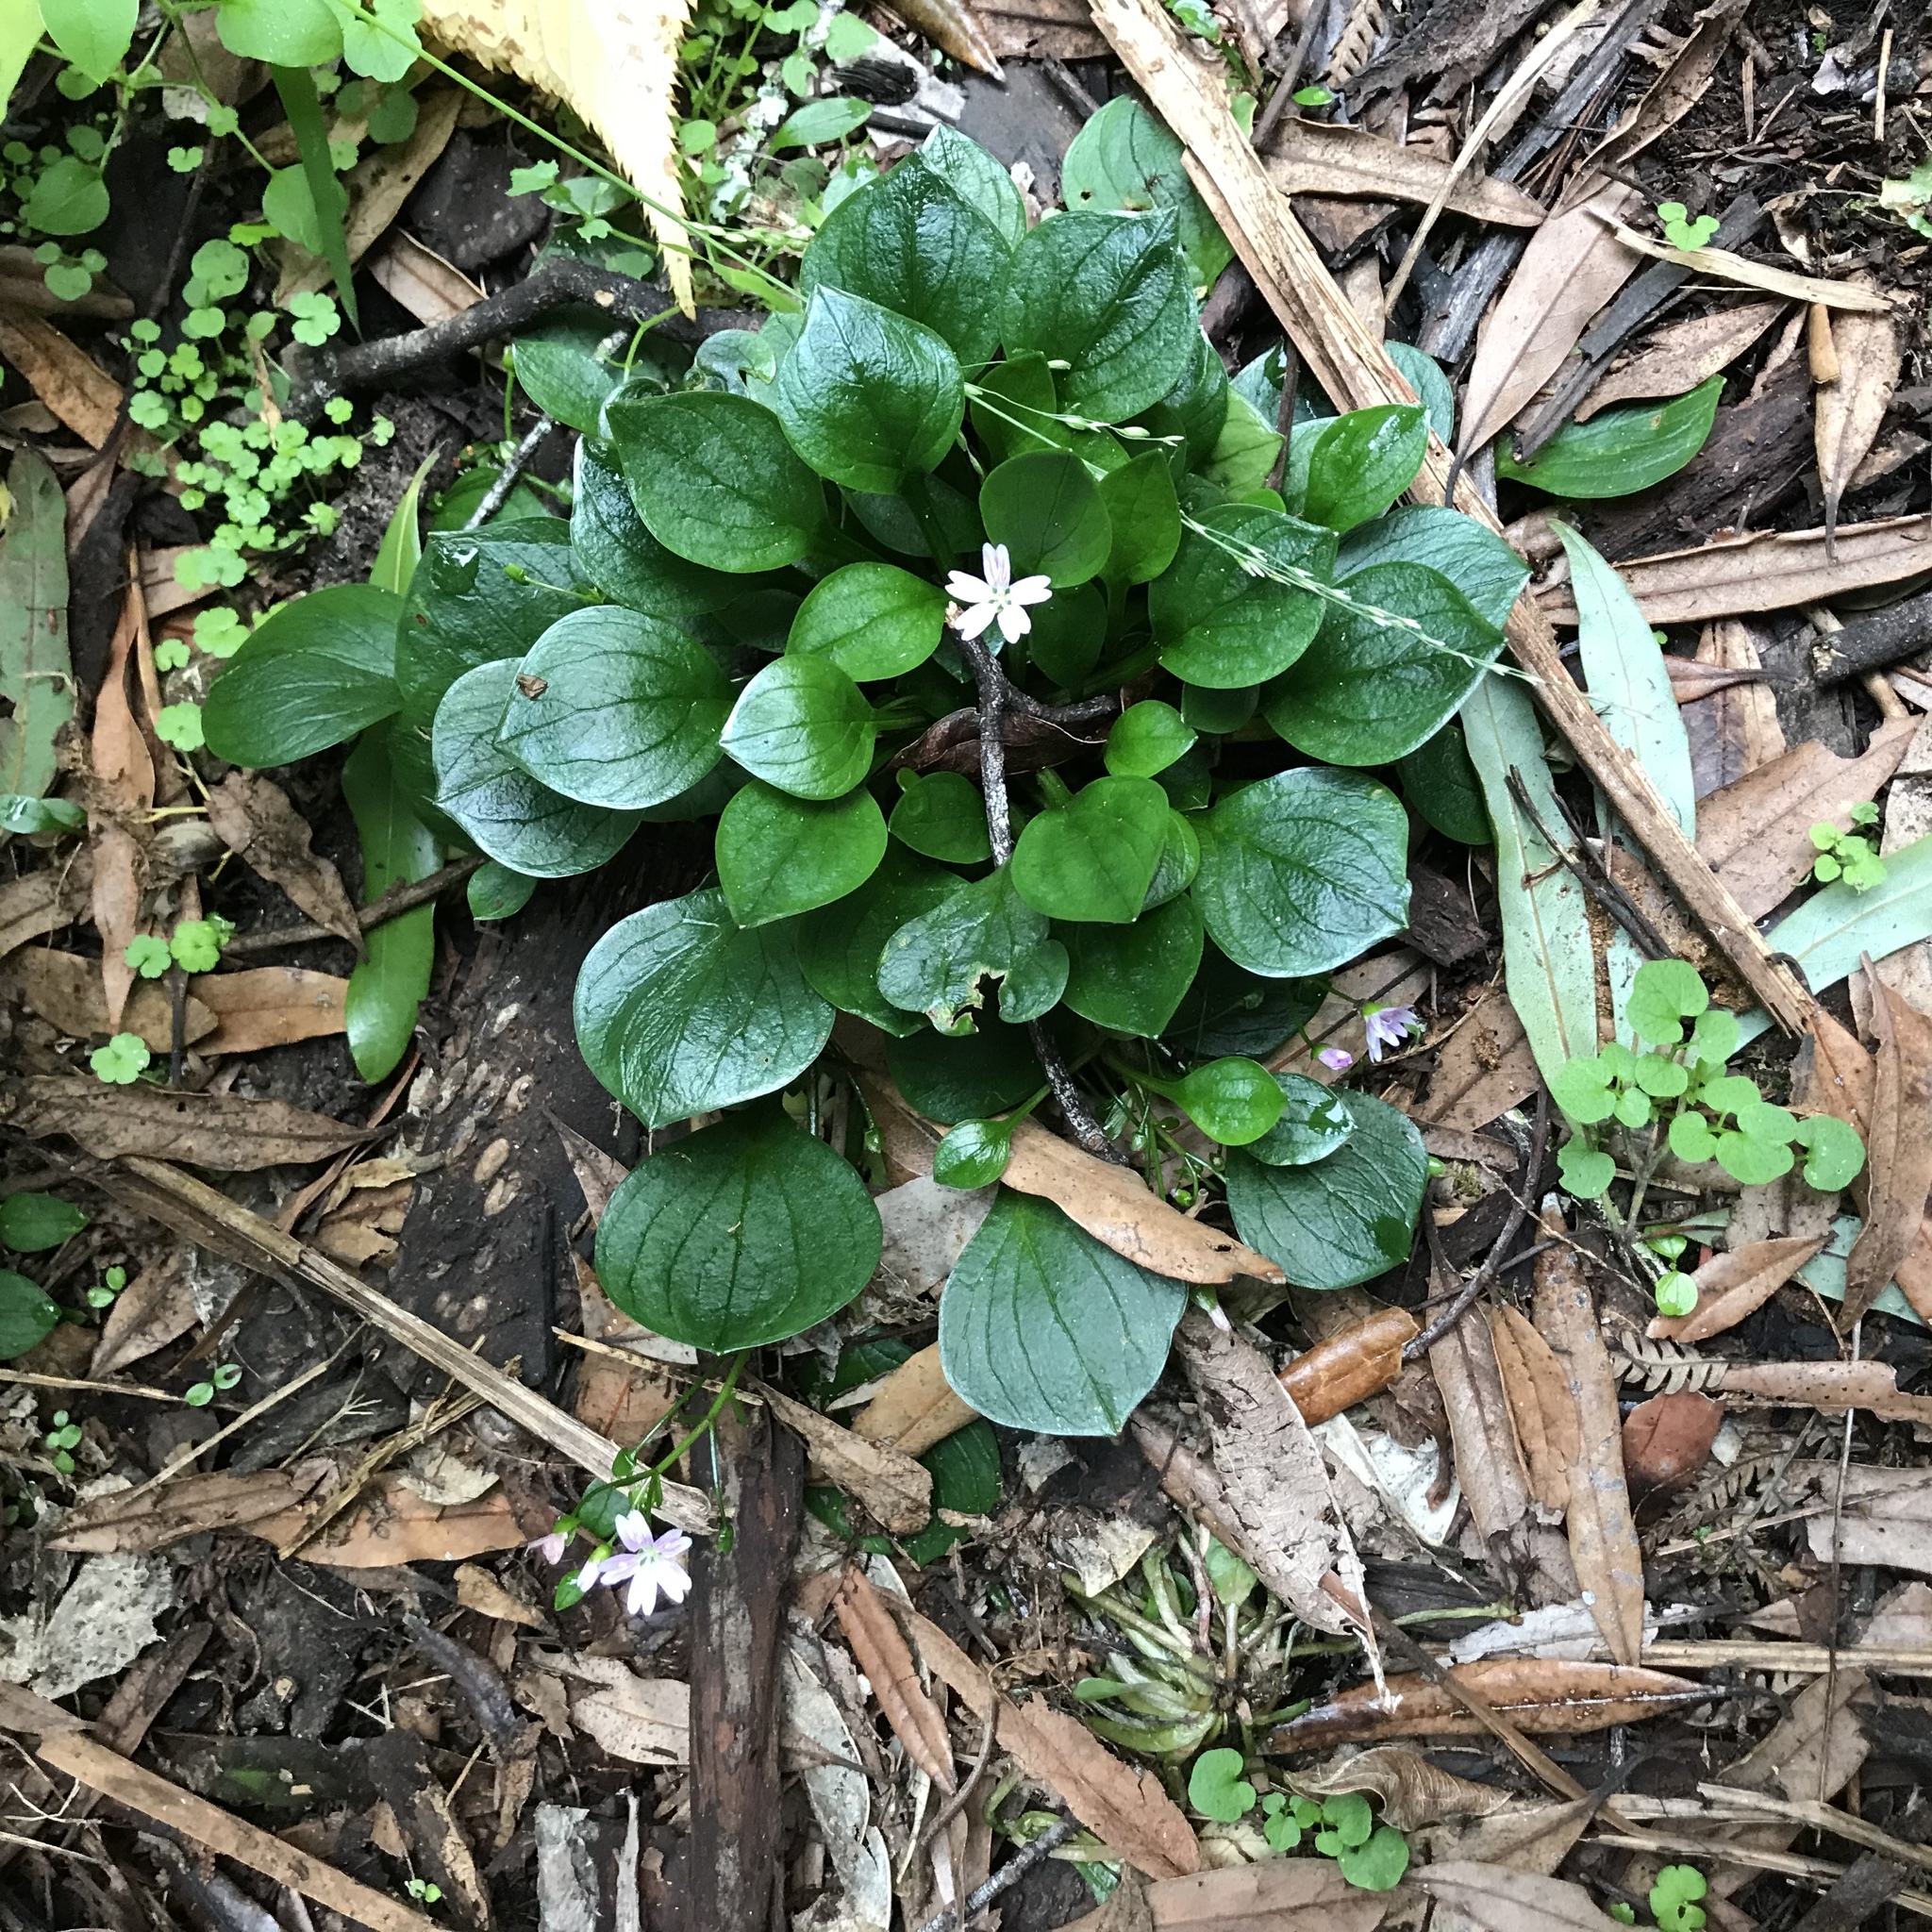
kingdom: Plantae
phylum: Tracheophyta
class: Magnoliopsida
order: Caryophyllales
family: Montiaceae
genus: Claytonia
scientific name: Claytonia sibirica
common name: Pink purslane
